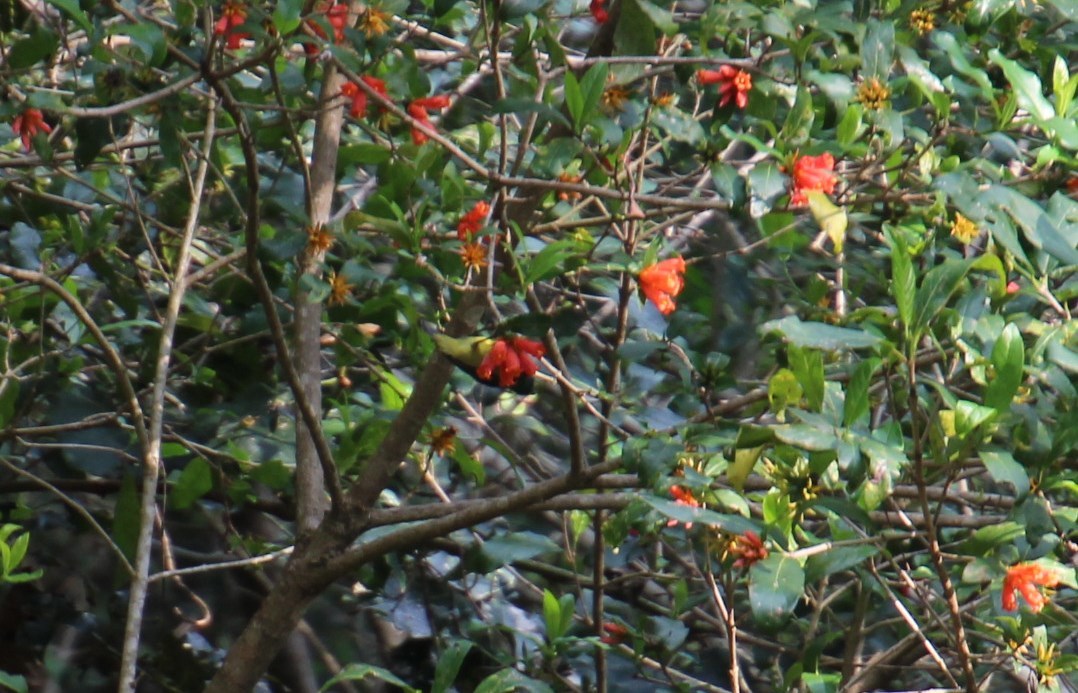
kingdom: Plantae
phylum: Tracheophyta
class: Magnoliopsida
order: Gentianales
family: Rubiaceae
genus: Burchellia
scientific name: Burchellia bubalina
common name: Wild pomegranate
